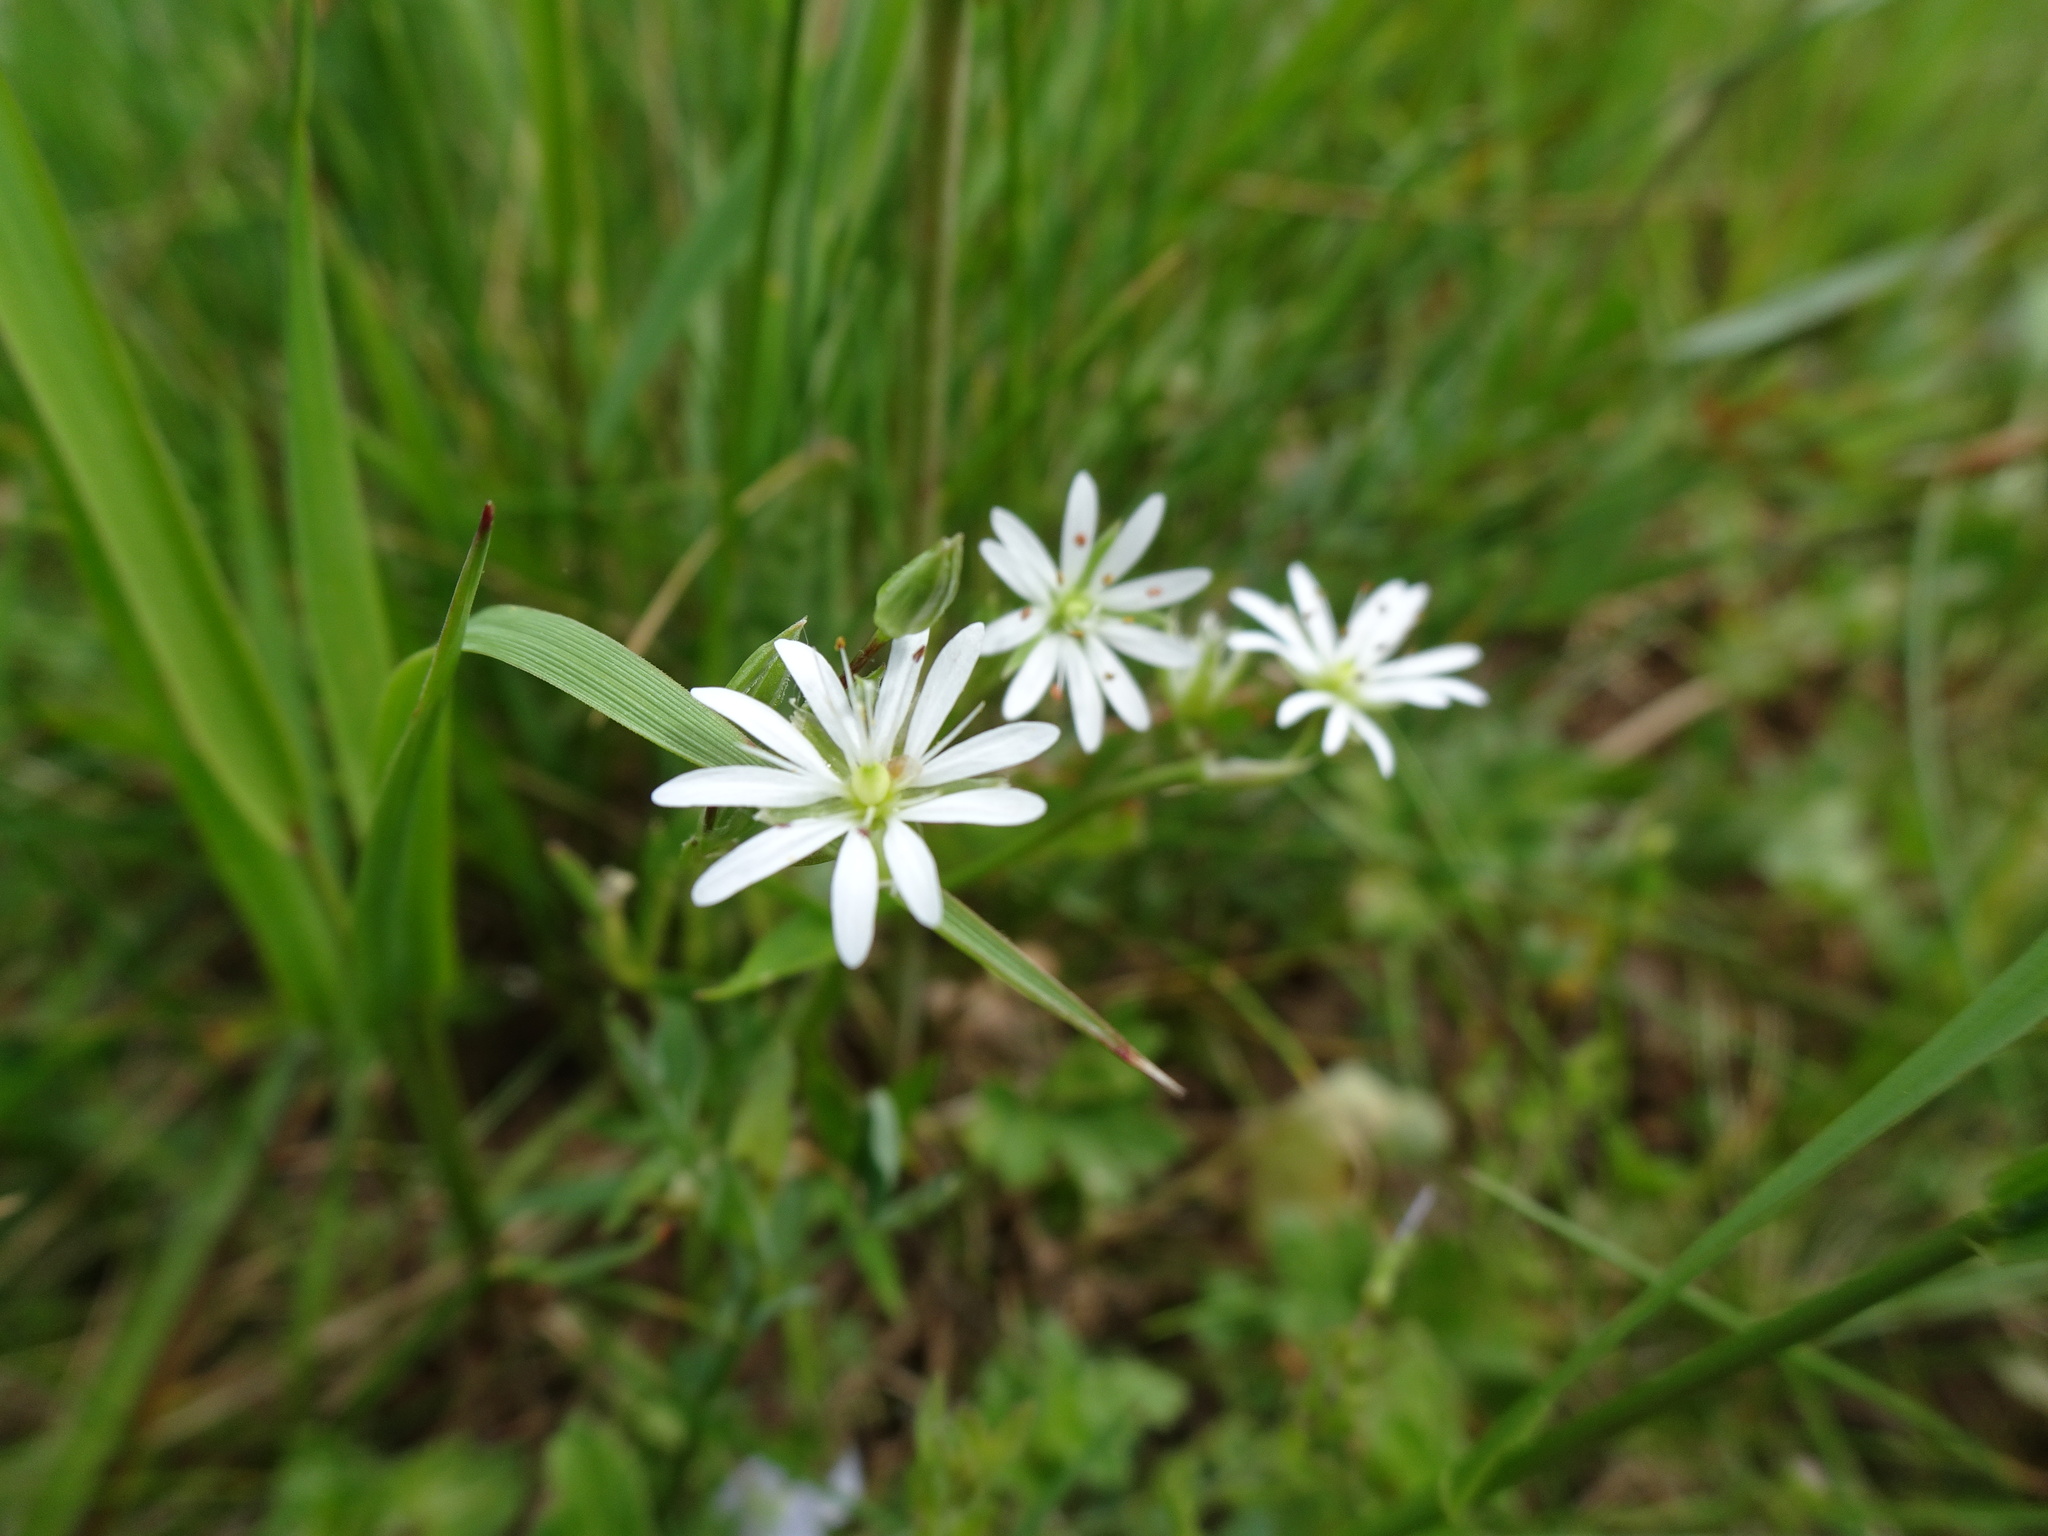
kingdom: Plantae
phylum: Tracheophyta
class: Magnoliopsida
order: Caryophyllales
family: Caryophyllaceae
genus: Stellaria
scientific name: Stellaria graminea
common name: Grass-like starwort
